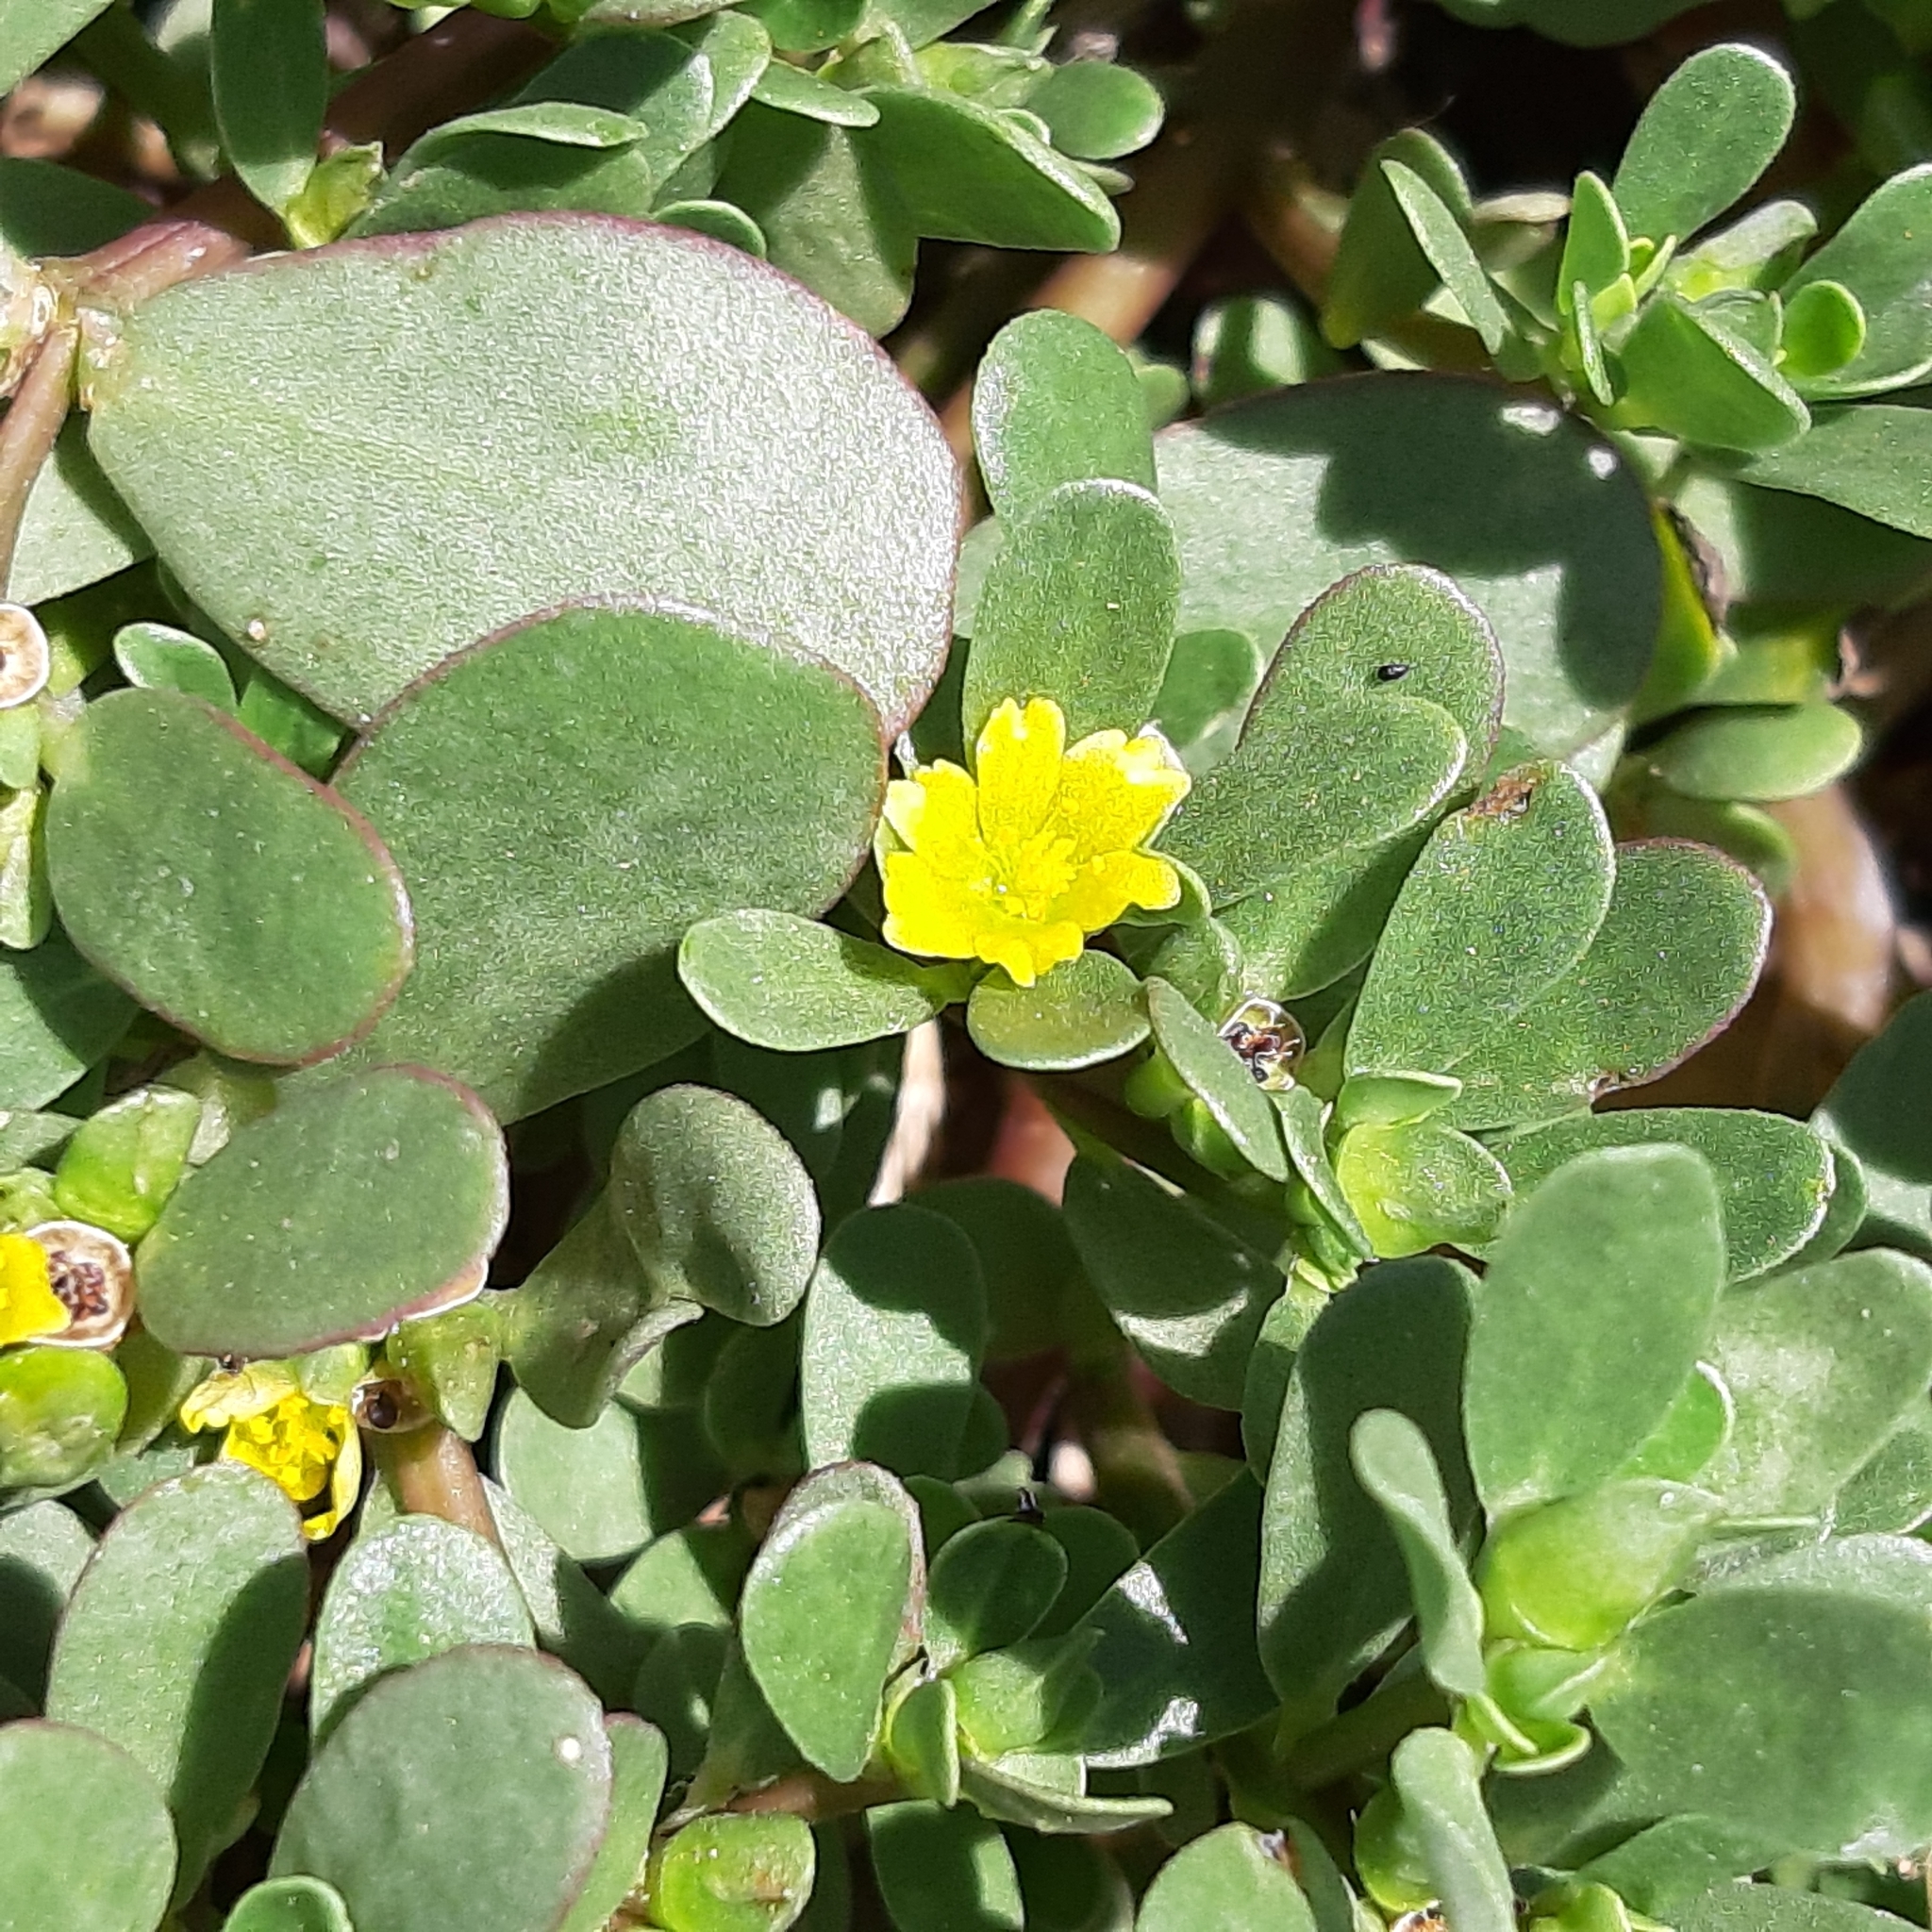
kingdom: Plantae
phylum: Tracheophyta
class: Magnoliopsida
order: Caryophyllales
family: Portulacaceae
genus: Portulaca
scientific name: Portulaca oleracea
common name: Common purslane
